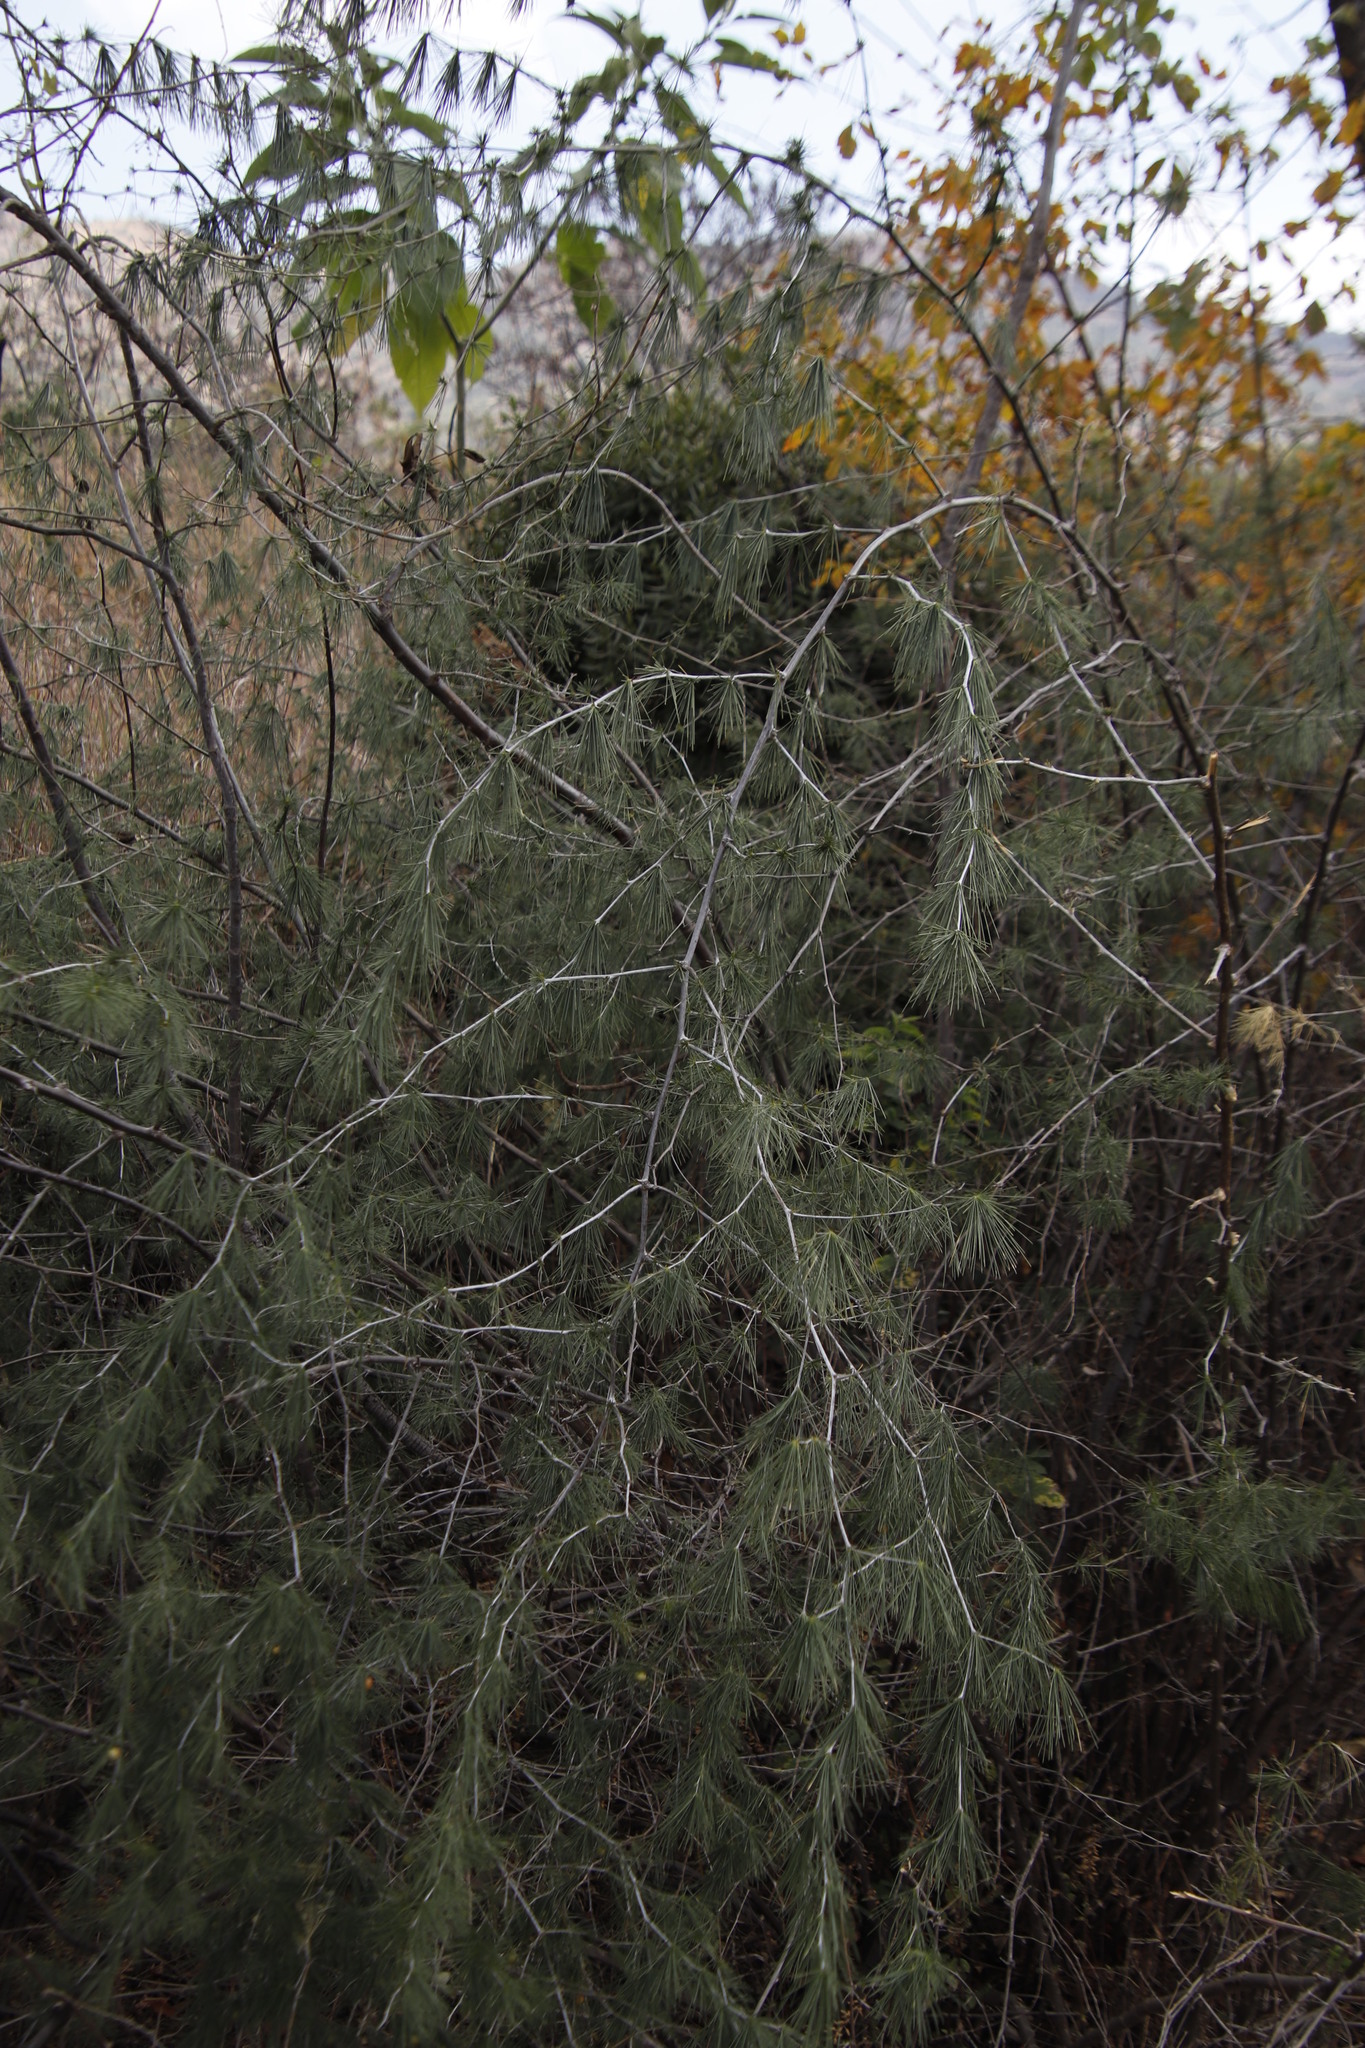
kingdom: Plantae
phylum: Tracheophyta
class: Liliopsida
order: Asparagales
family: Asparagaceae
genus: Asparagus
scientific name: Asparagus laricinus
